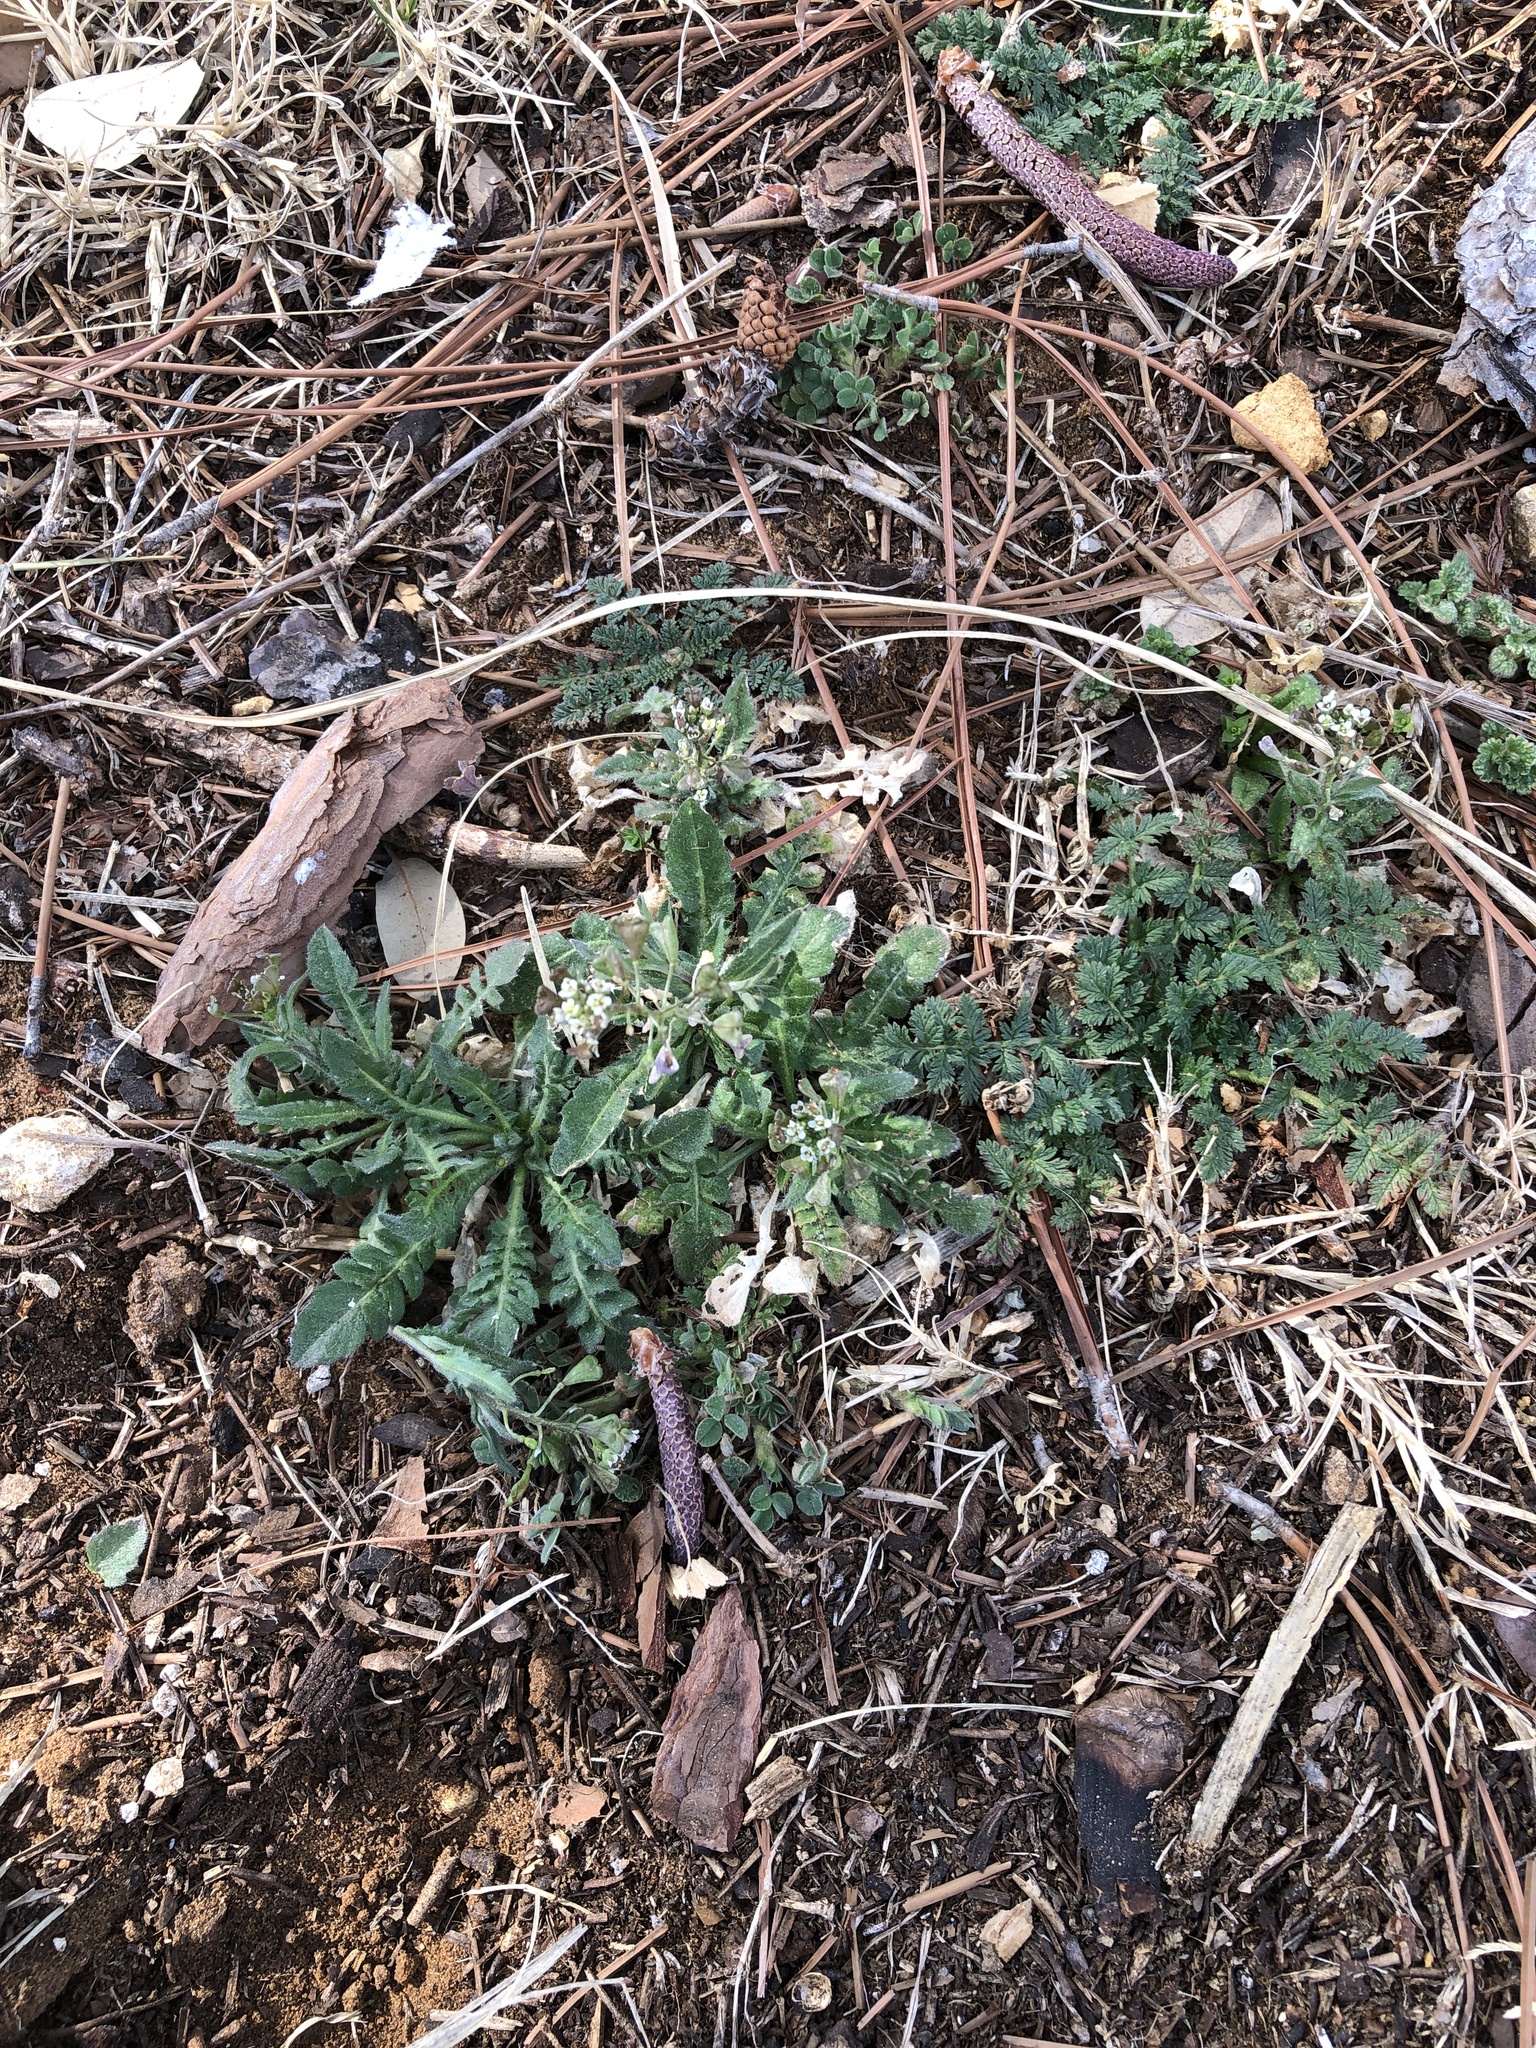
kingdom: Plantae
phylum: Tracheophyta
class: Magnoliopsida
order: Brassicales
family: Brassicaceae
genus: Capsella
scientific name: Capsella bursa-pastoris
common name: Shepherd's purse
